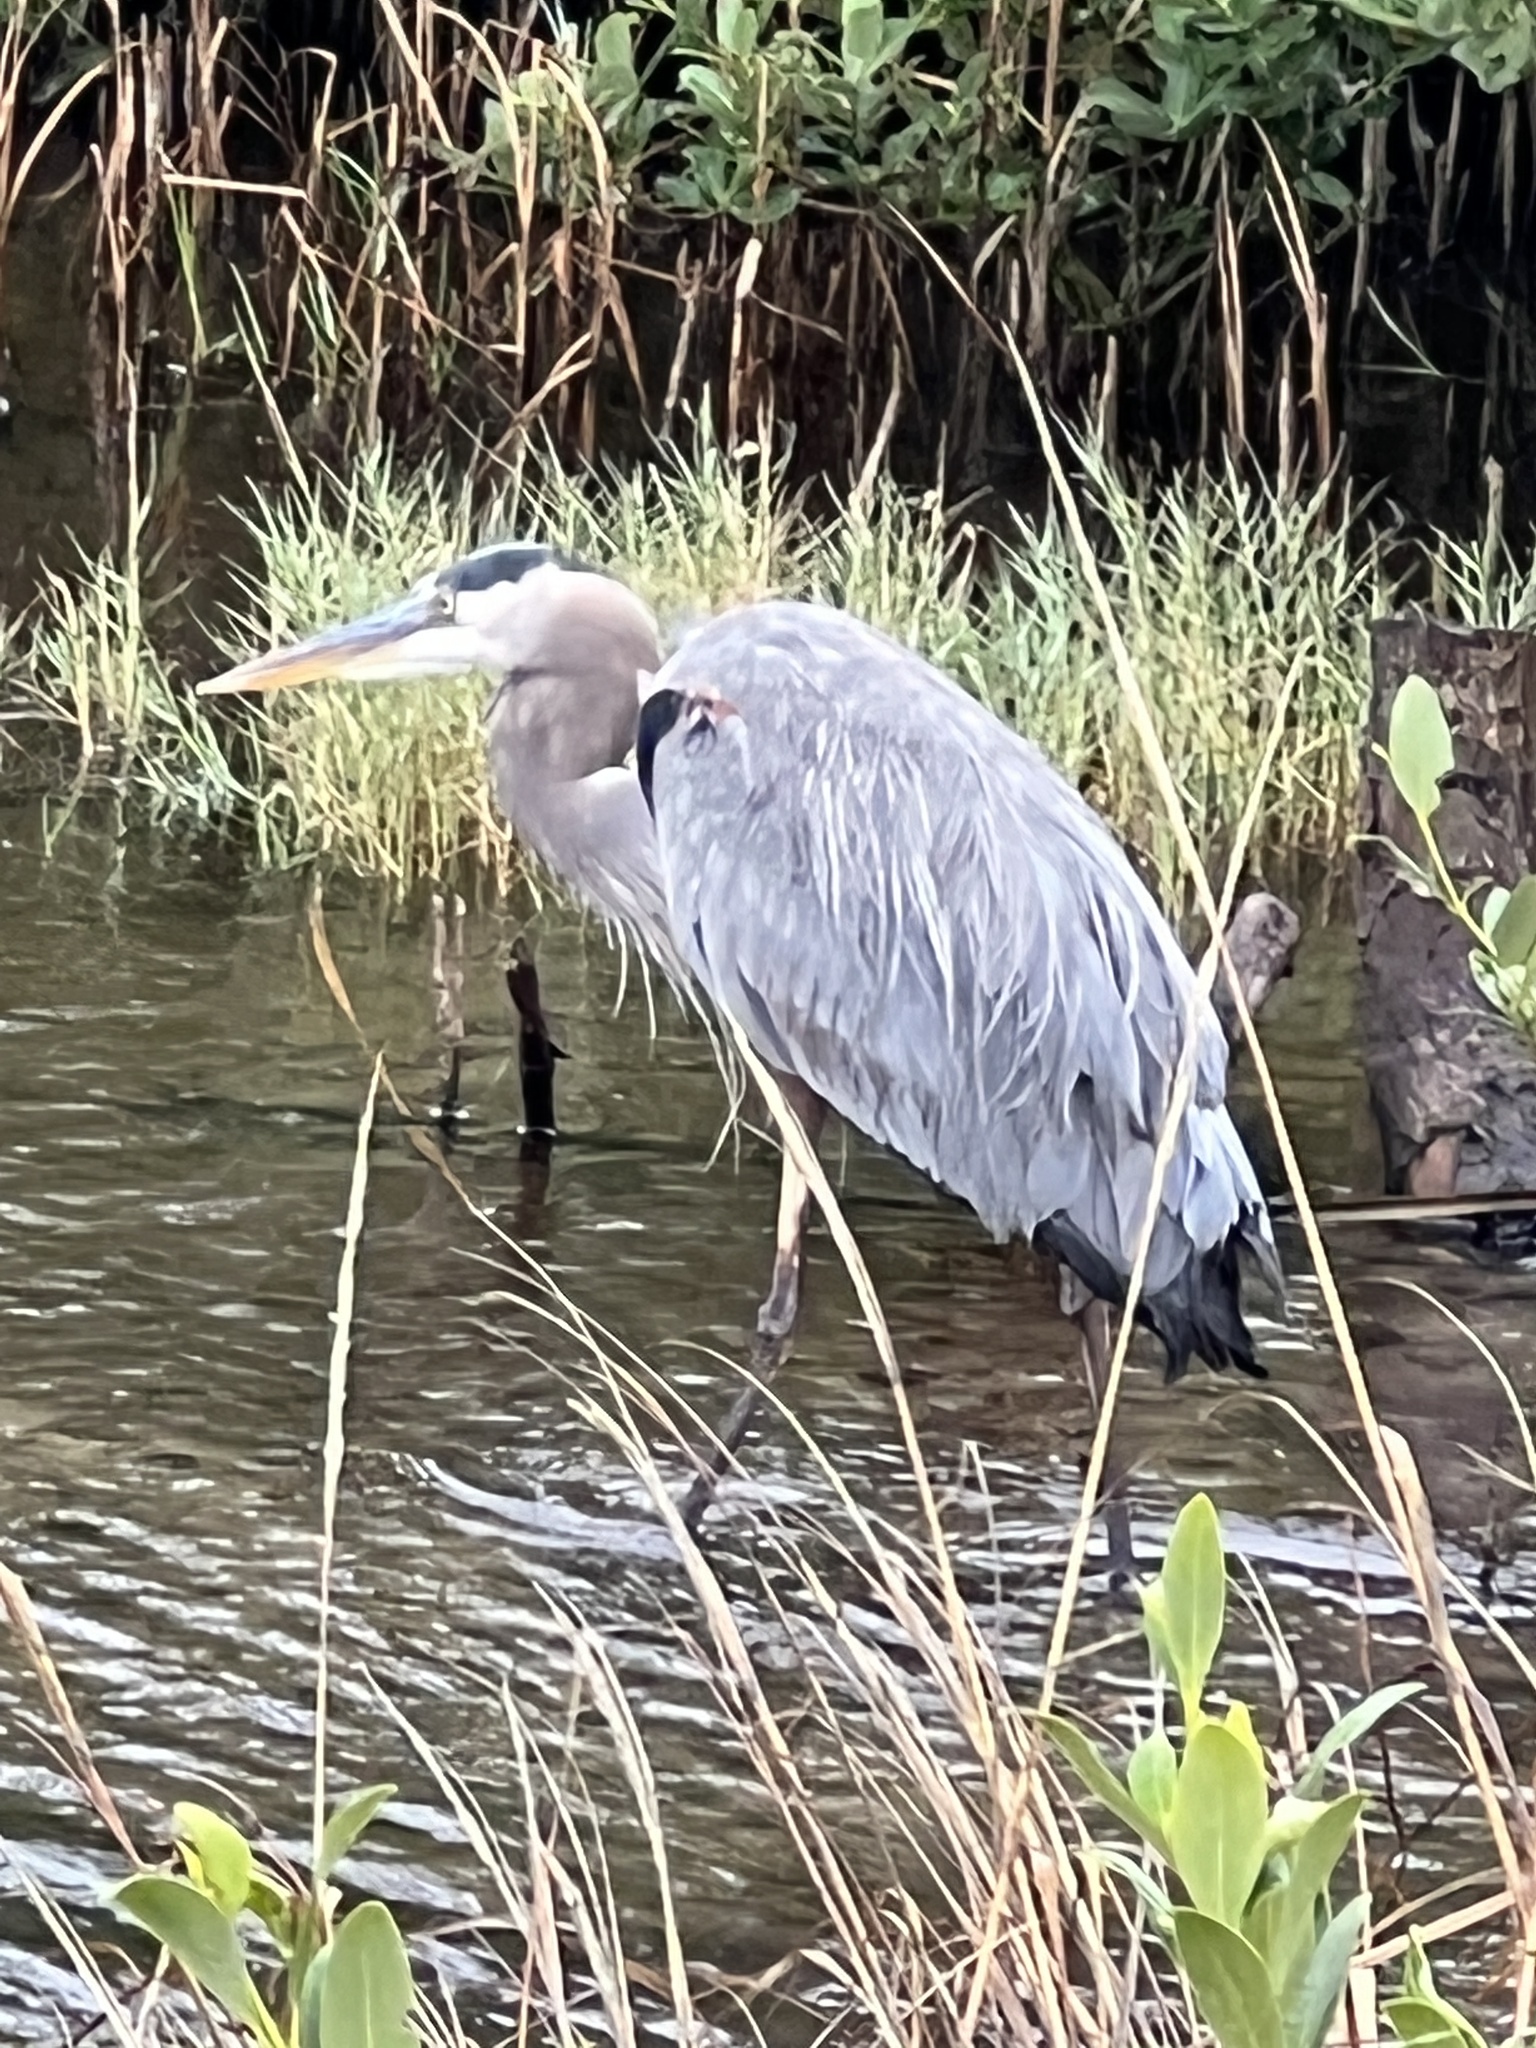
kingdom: Animalia
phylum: Chordata
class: Aves
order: Pelecaniformes
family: Ardeidae
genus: Ardea
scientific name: Ardea herodias
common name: Great blue heron
